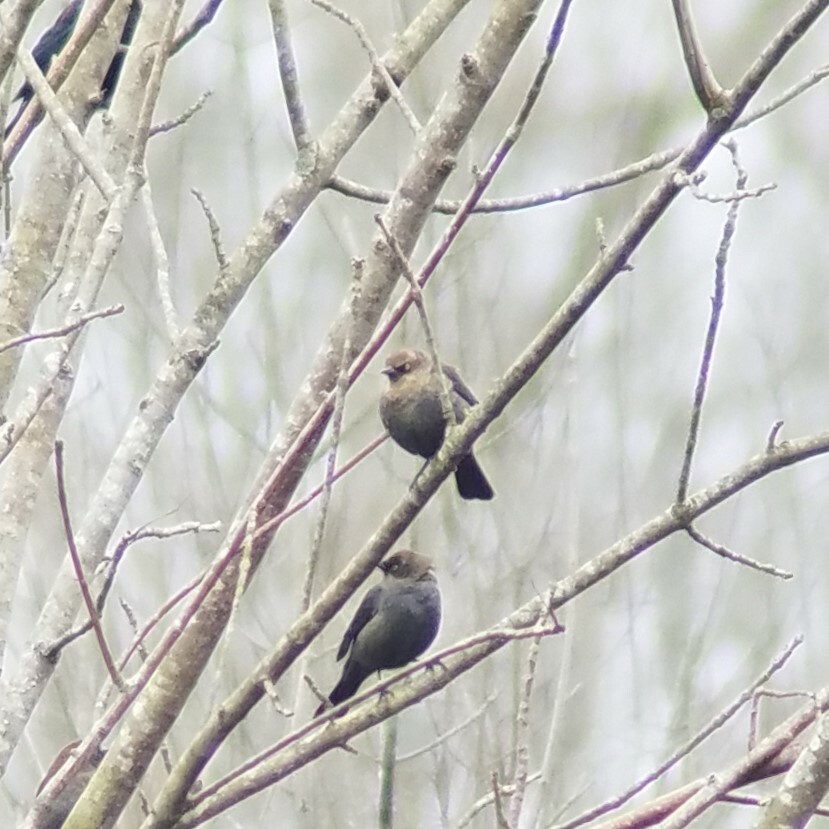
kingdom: Animalia
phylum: Chordata
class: Aves
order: Passeriformes
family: Icteridae
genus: Euphagus
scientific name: Euphagus carolinus
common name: Rusty blackbird
